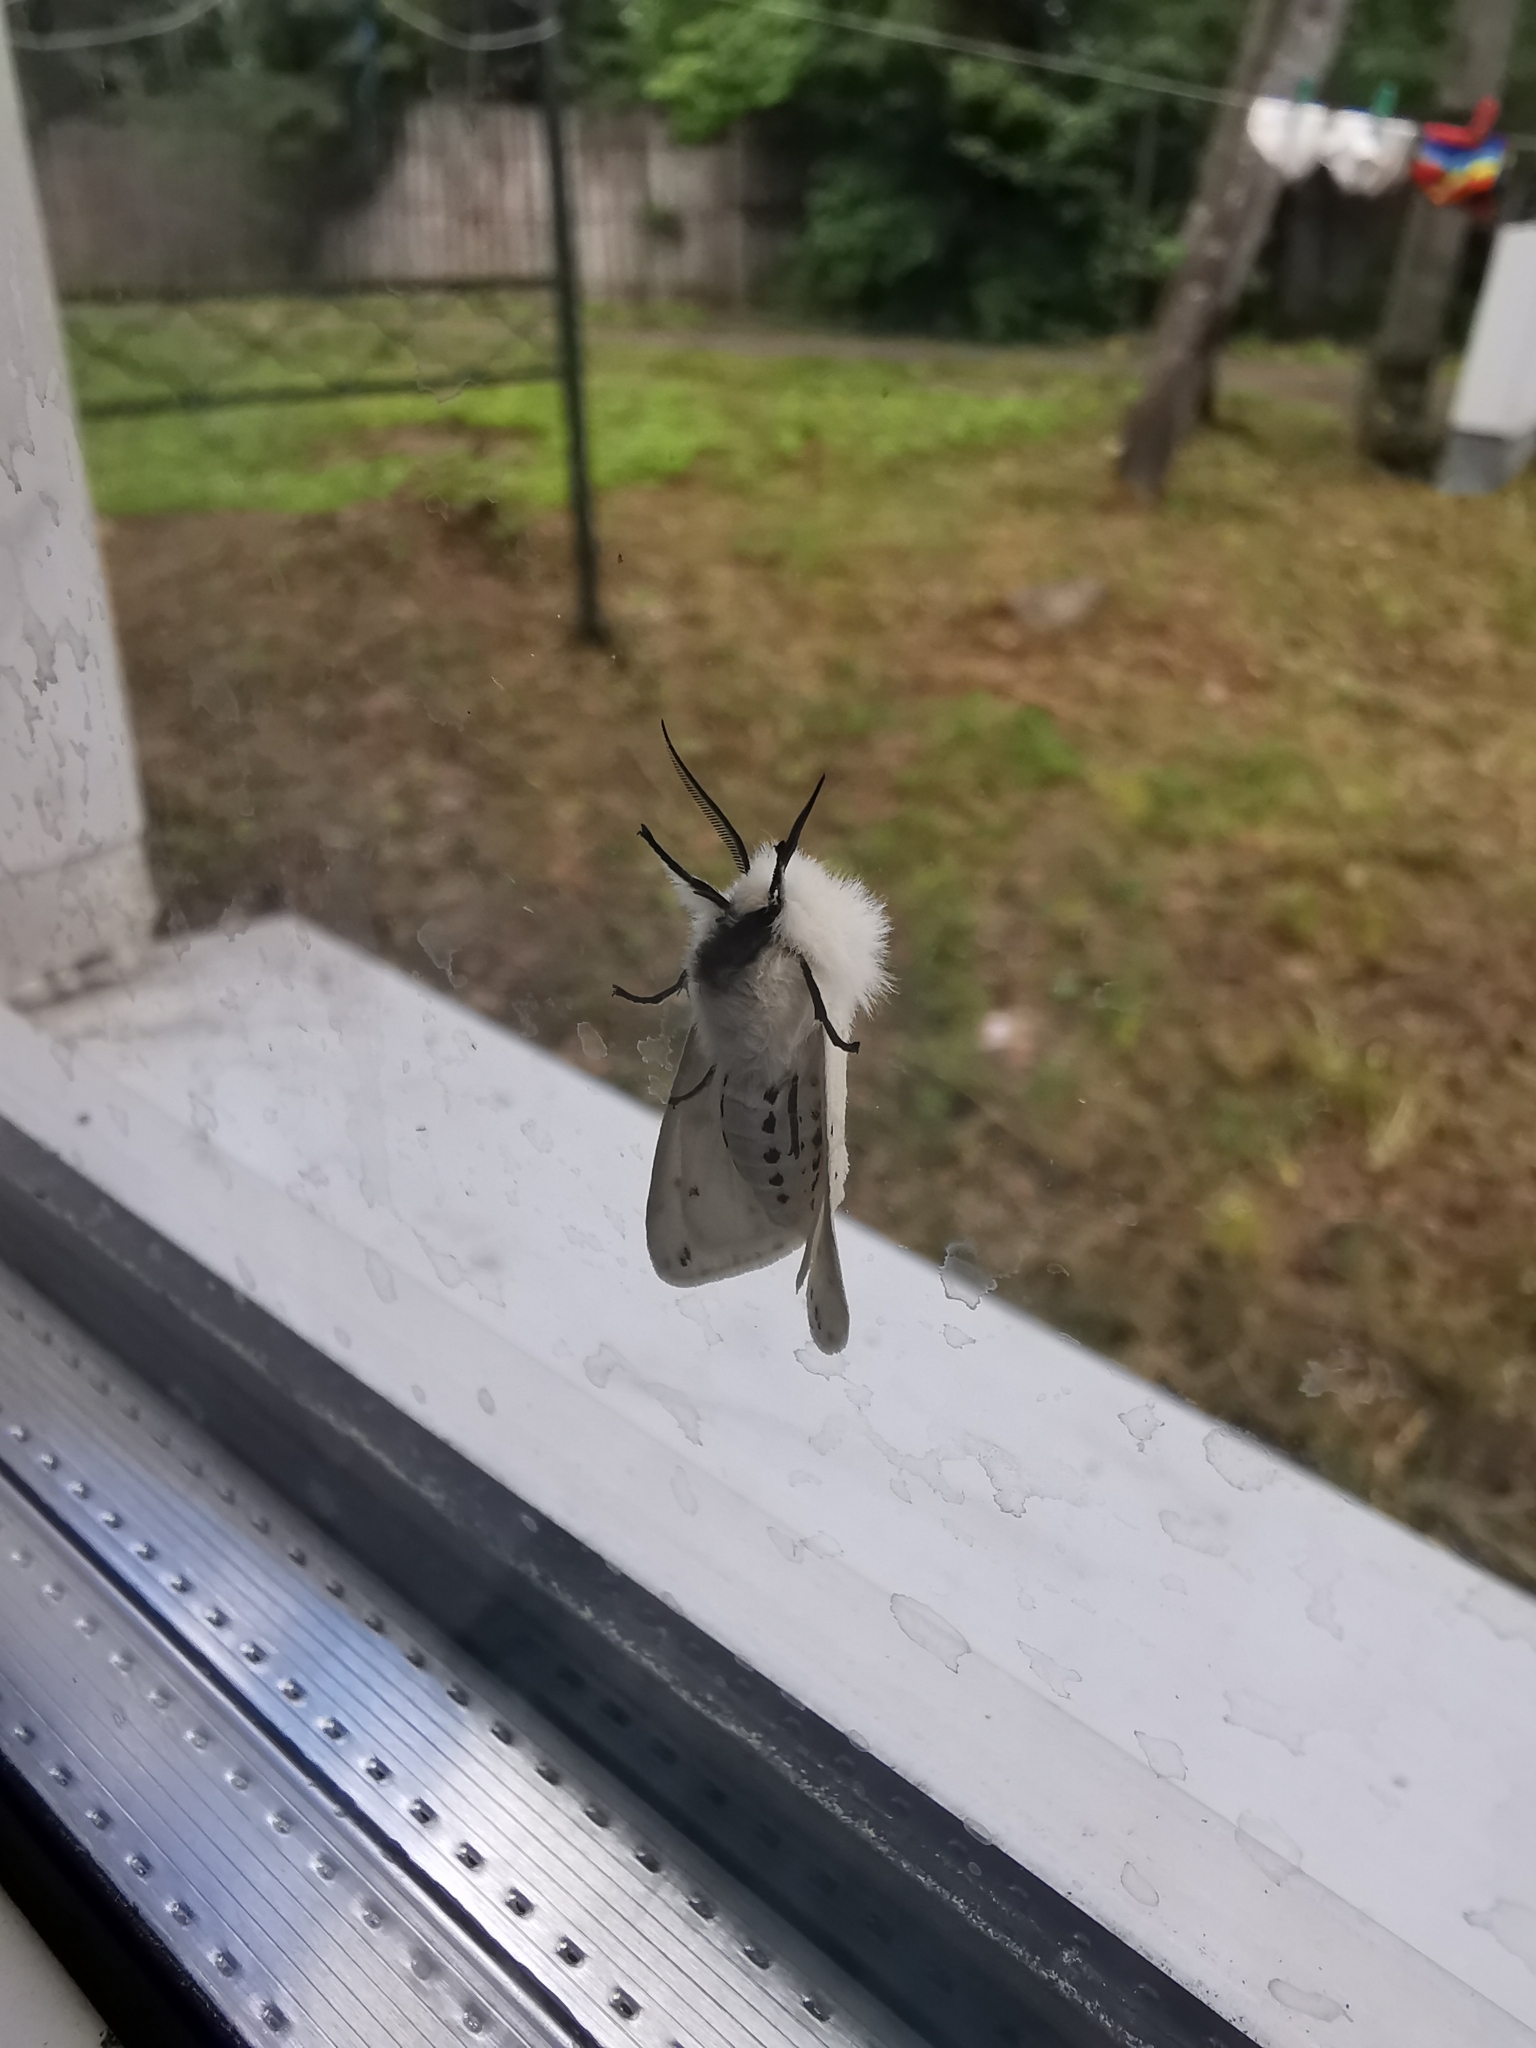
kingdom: Animalia
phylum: Arthropoda
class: Insecta
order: Lepidoptera
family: Erebidae
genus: Spilosoma
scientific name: Spilosoma lubricipeda
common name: White ermine
